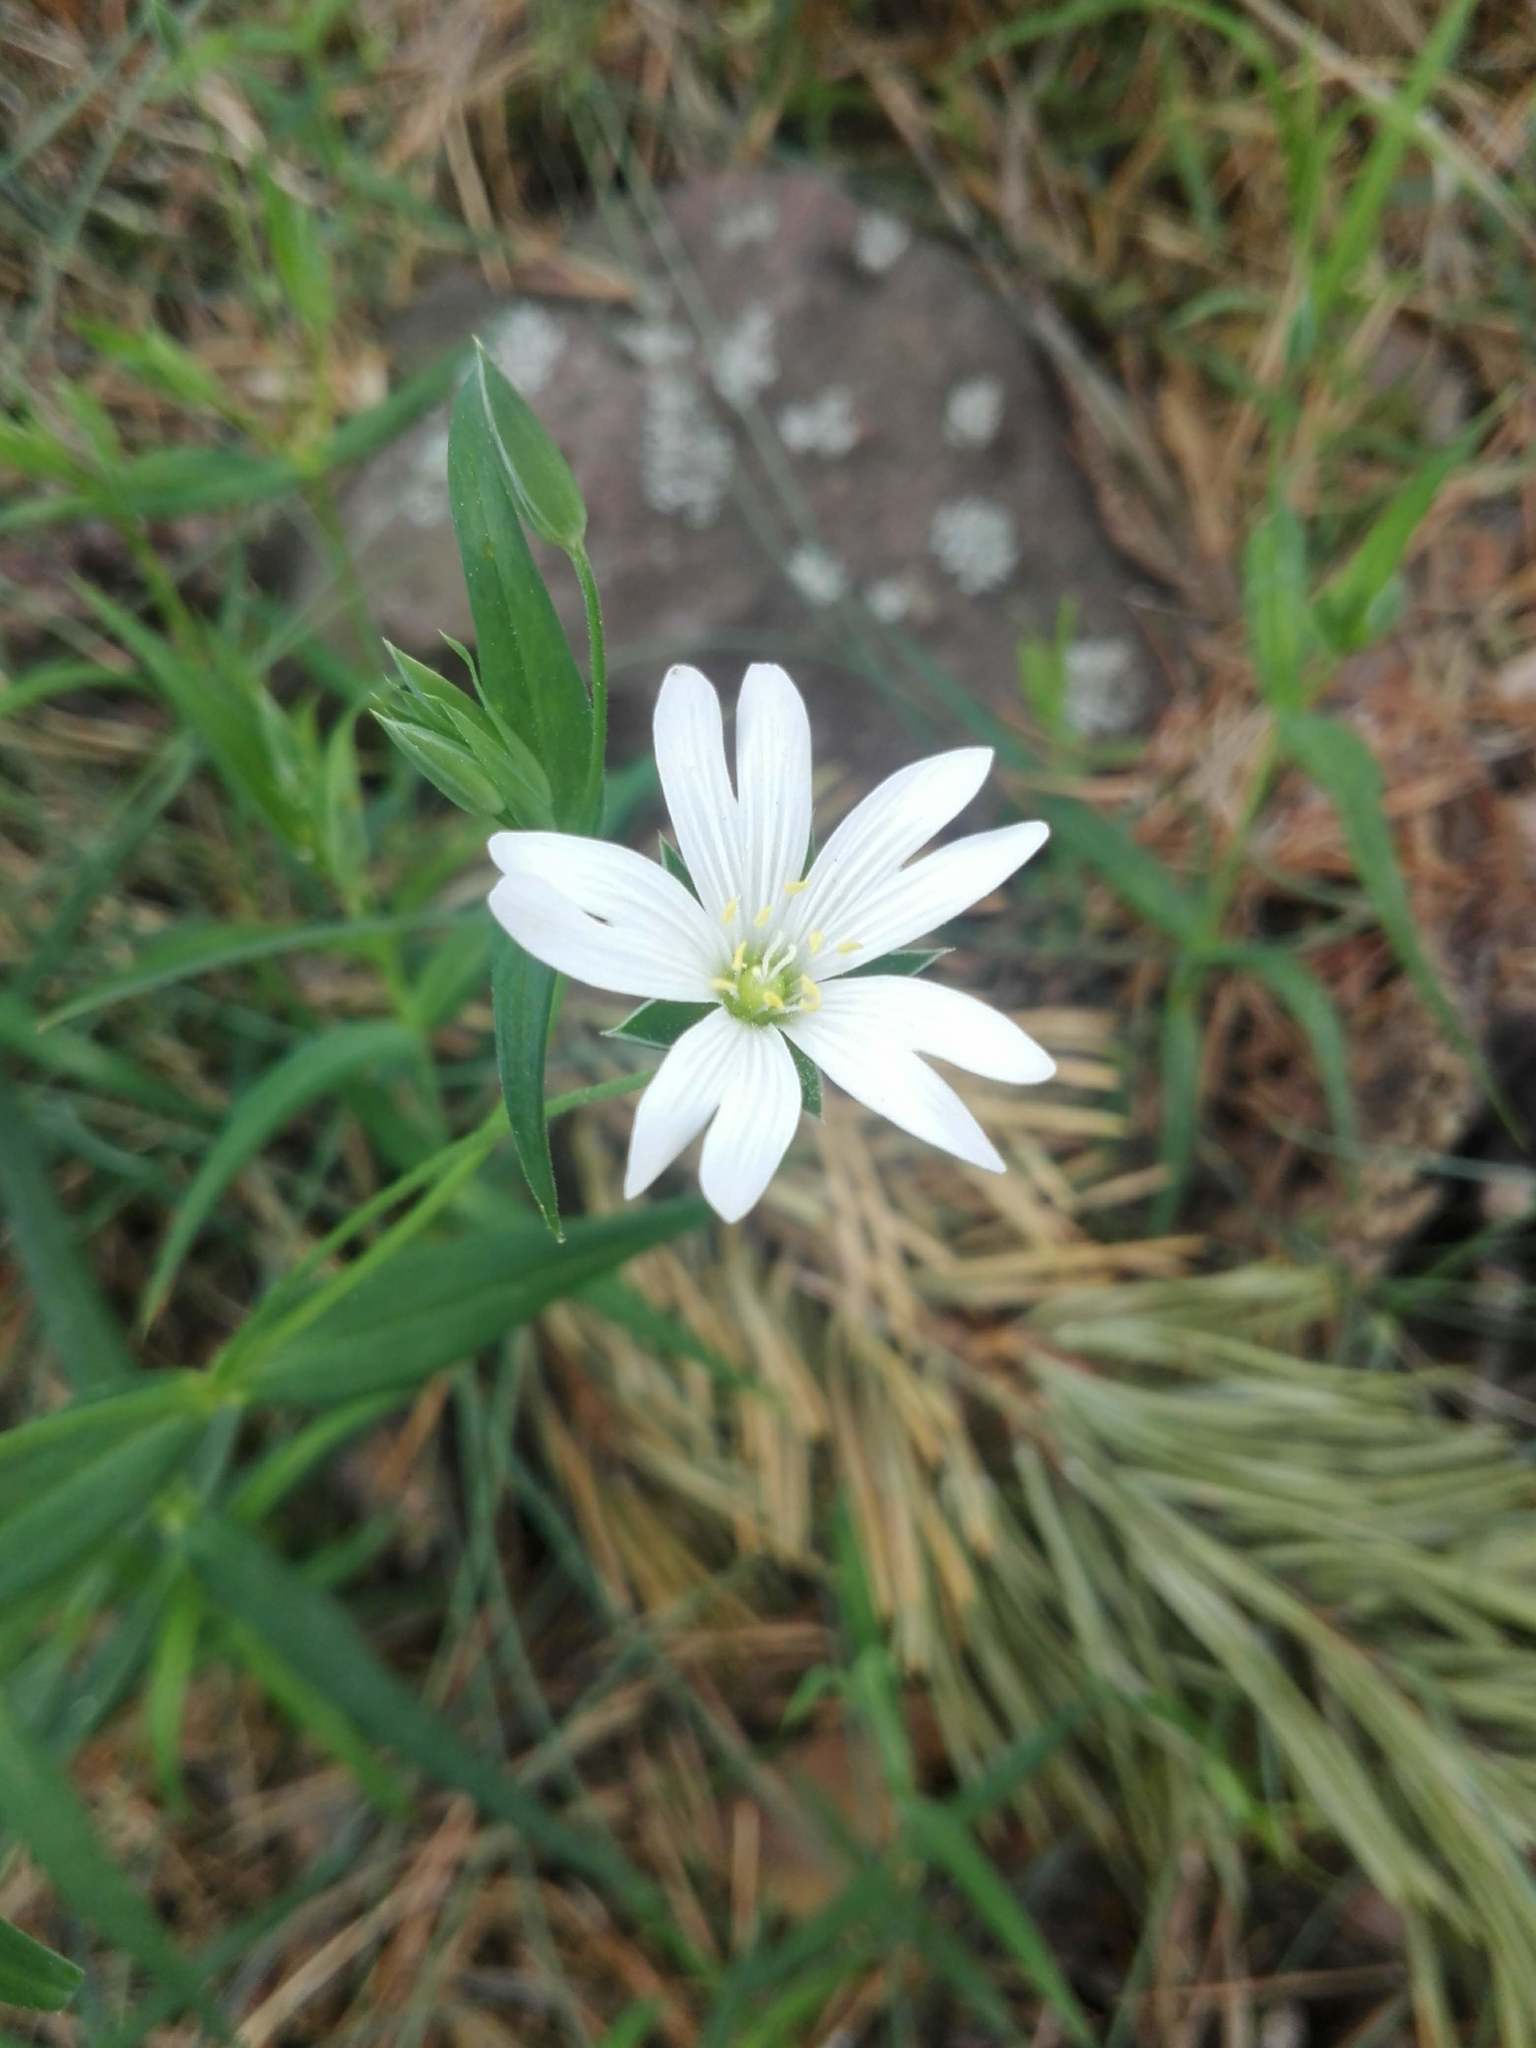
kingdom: Plantae
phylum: Tracheophyta
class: Magnoliopsida
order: Caryophyllales
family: Caryophyllaceae
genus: Rabelera
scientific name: Rabelera holostea
